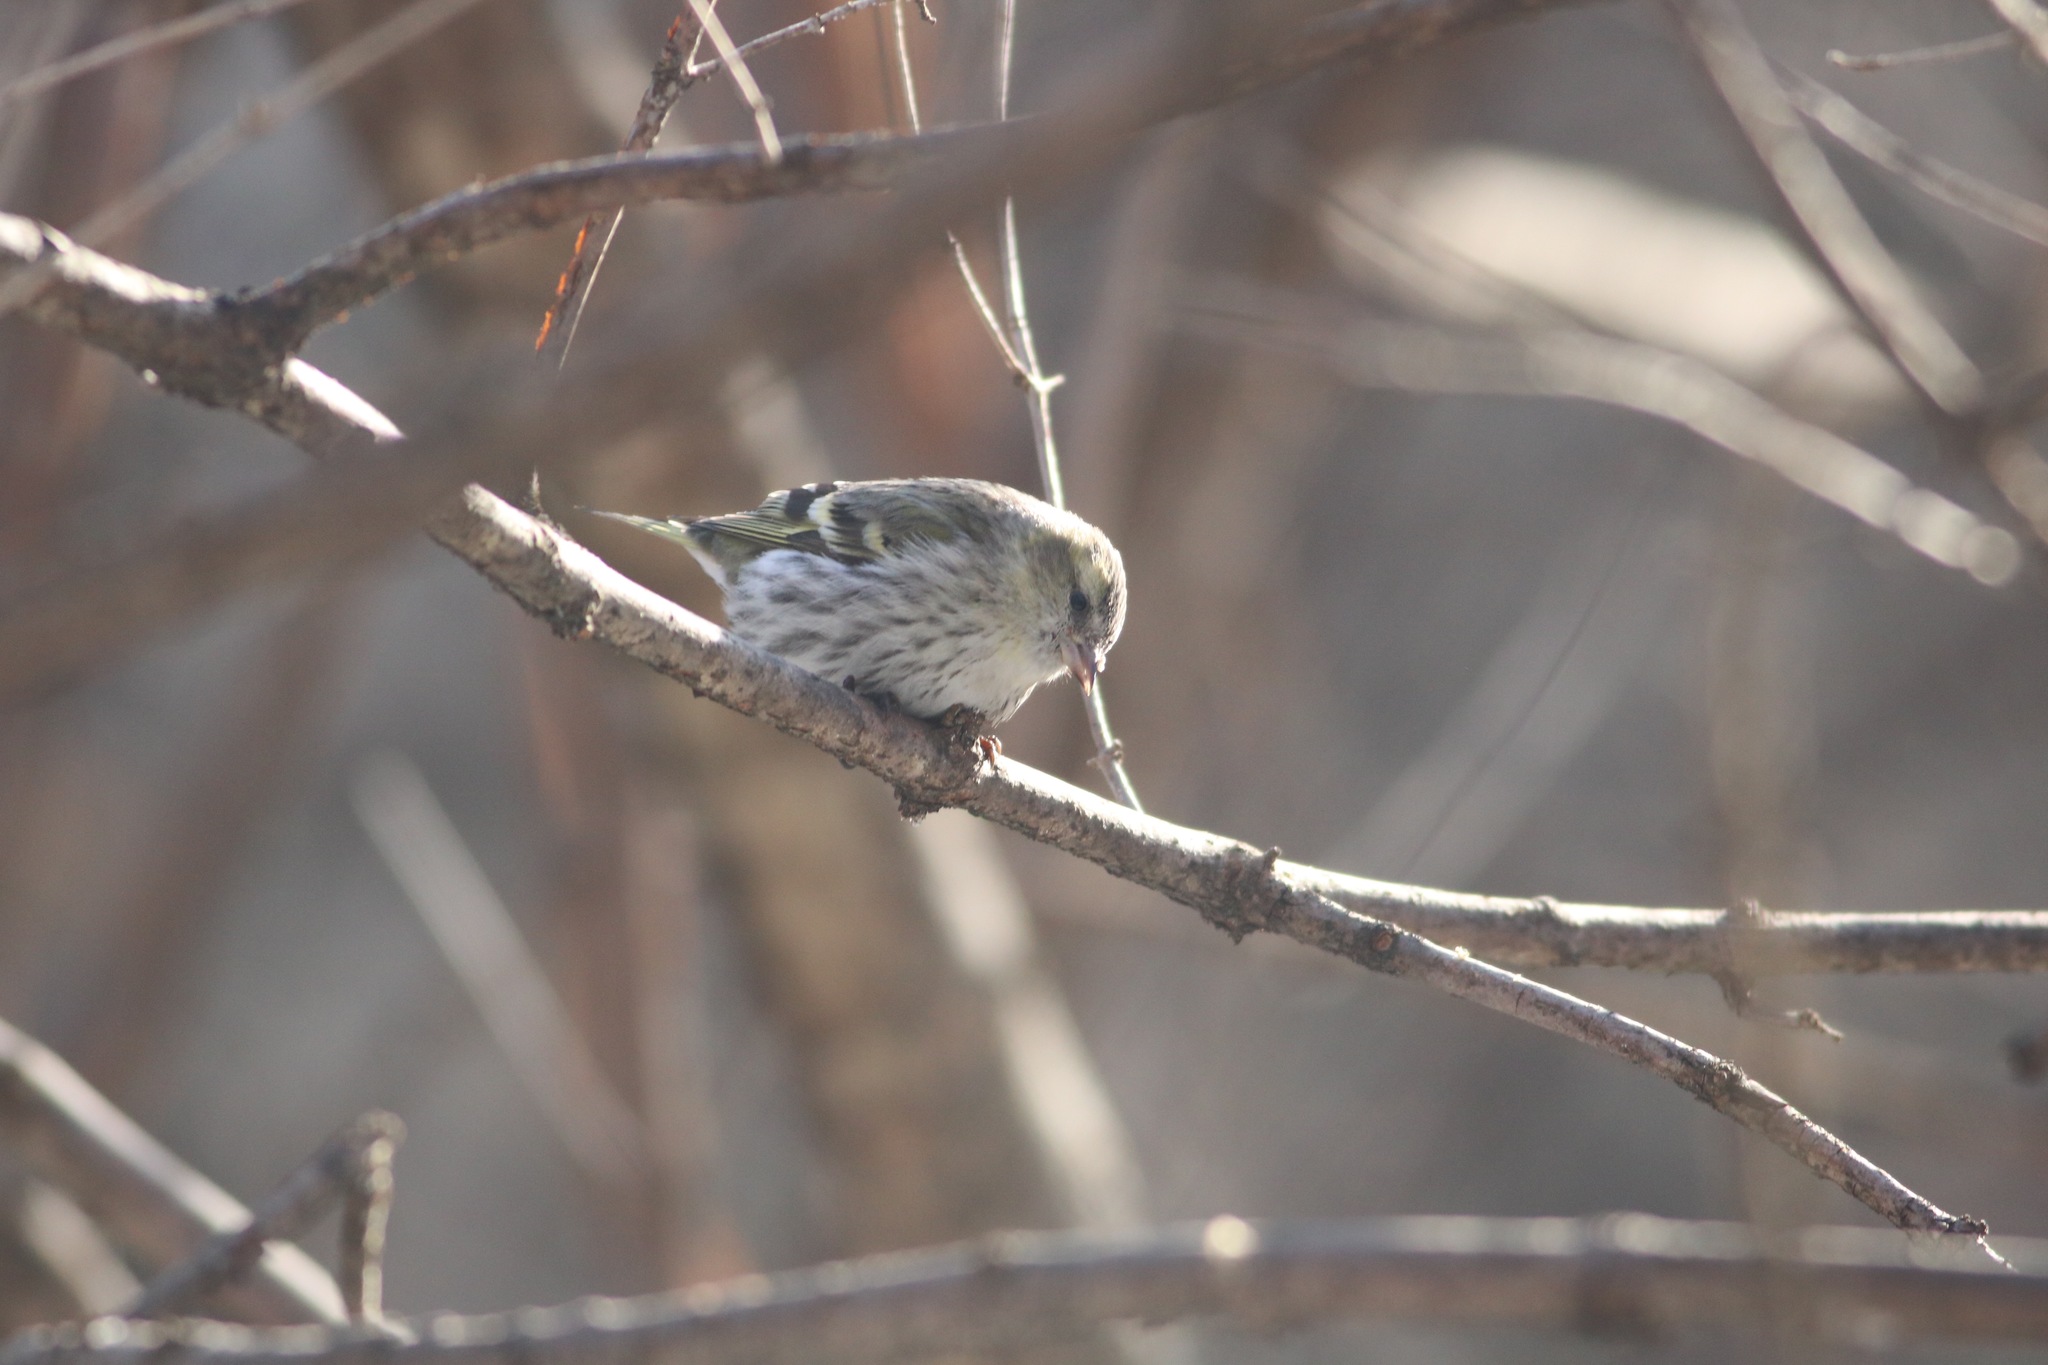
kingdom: Animalia
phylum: Chordata
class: Aves
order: Passeriformes
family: Fringillidae
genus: Spinus
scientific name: Spinus spinus
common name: Eurasian siskin
